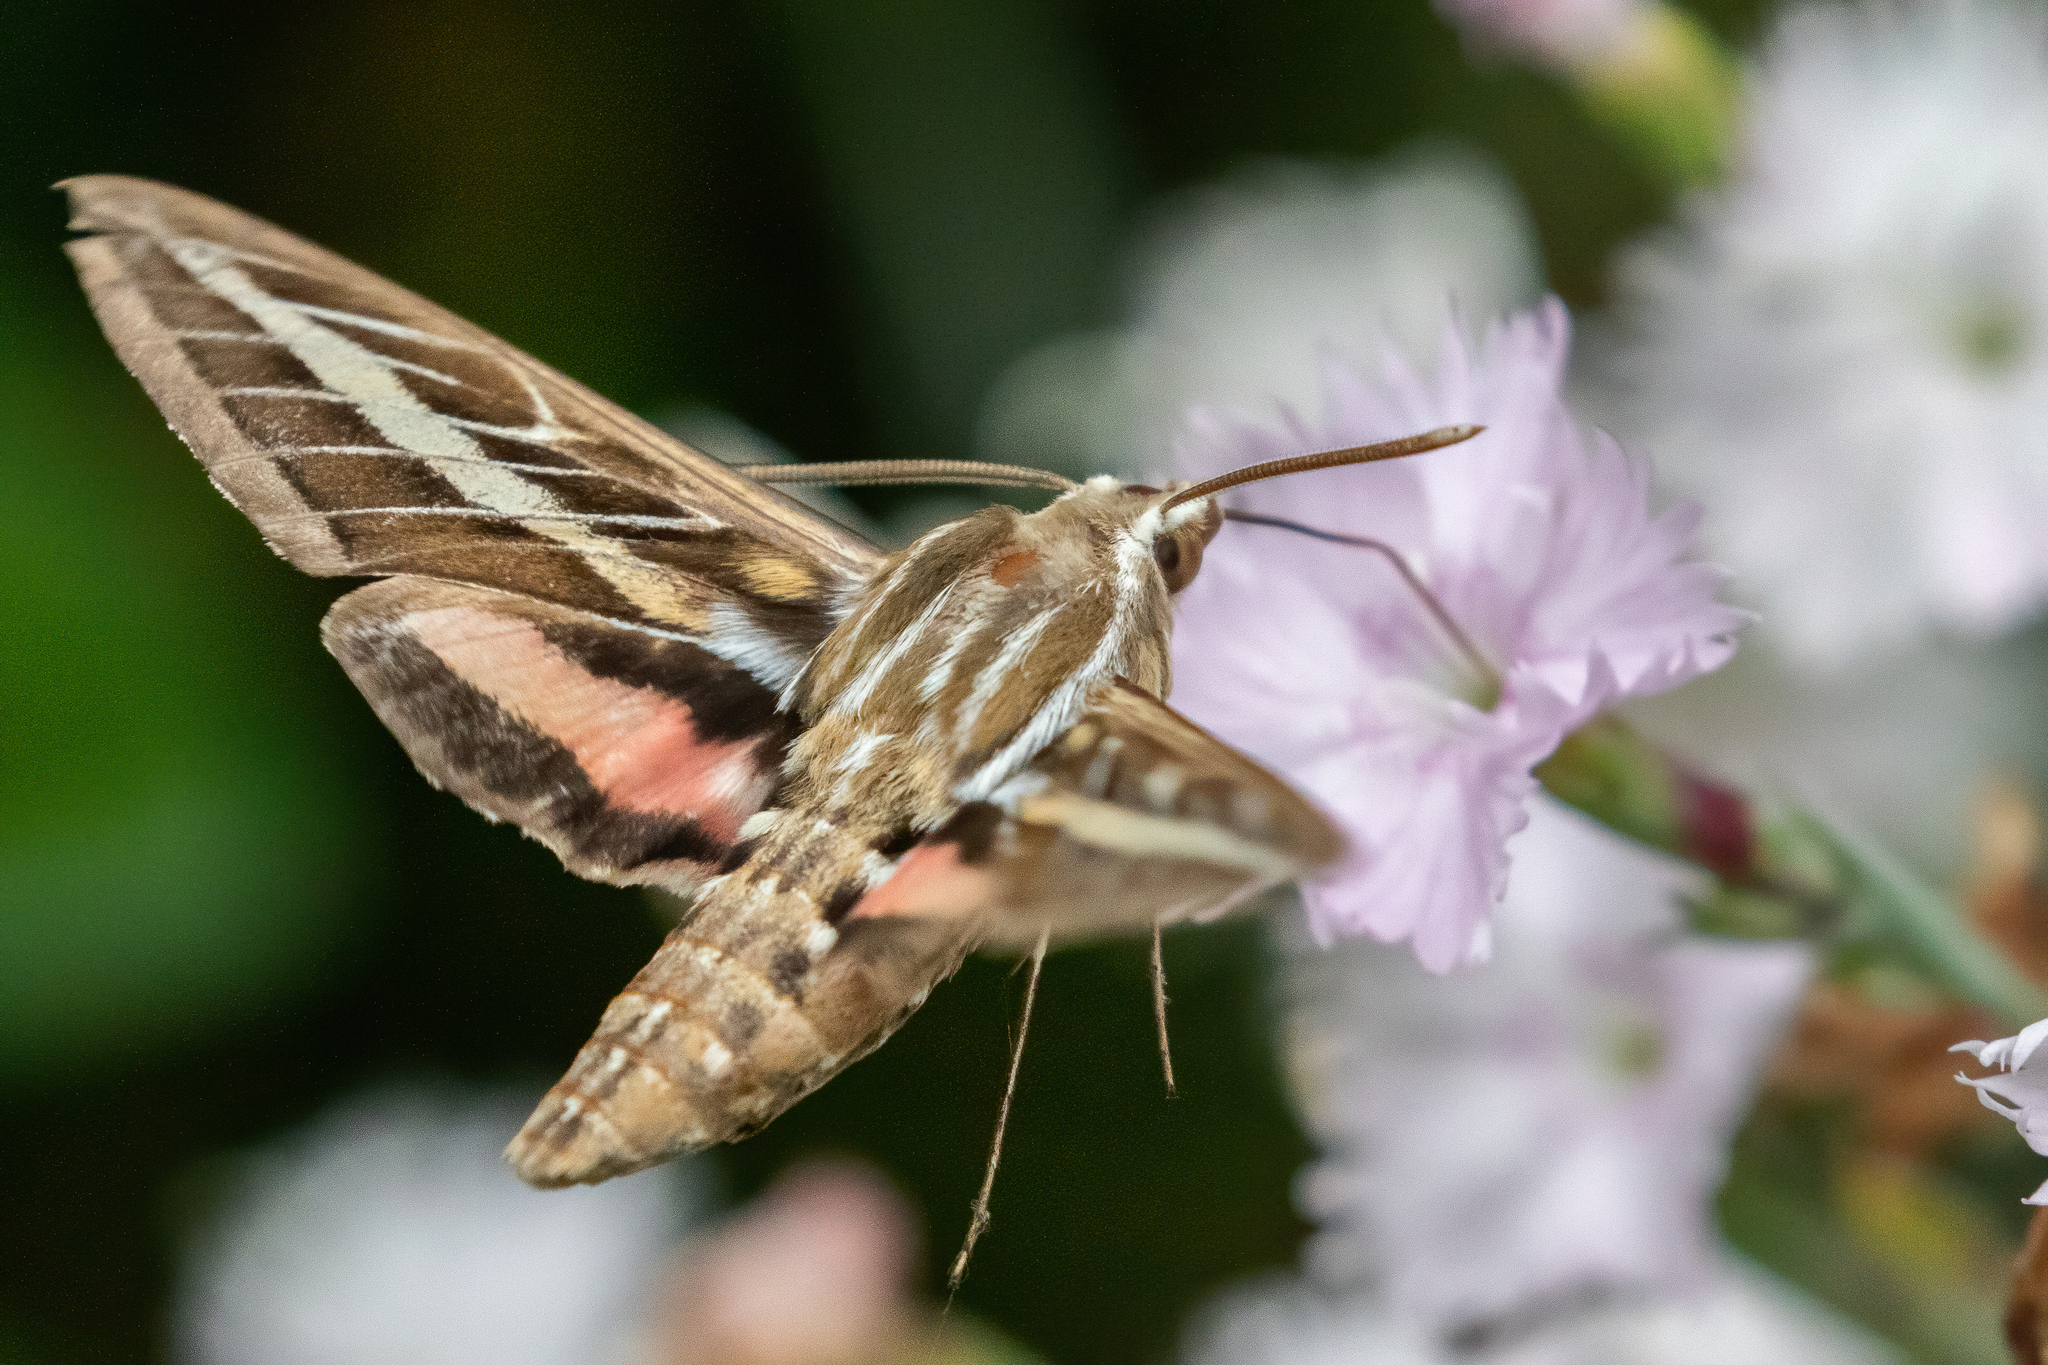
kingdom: Animalia
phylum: Arthropoda
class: Insecta
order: Lepidoptera
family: Sphingidae
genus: Hyles
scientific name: Hyles lineata
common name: White-lined sphinx
